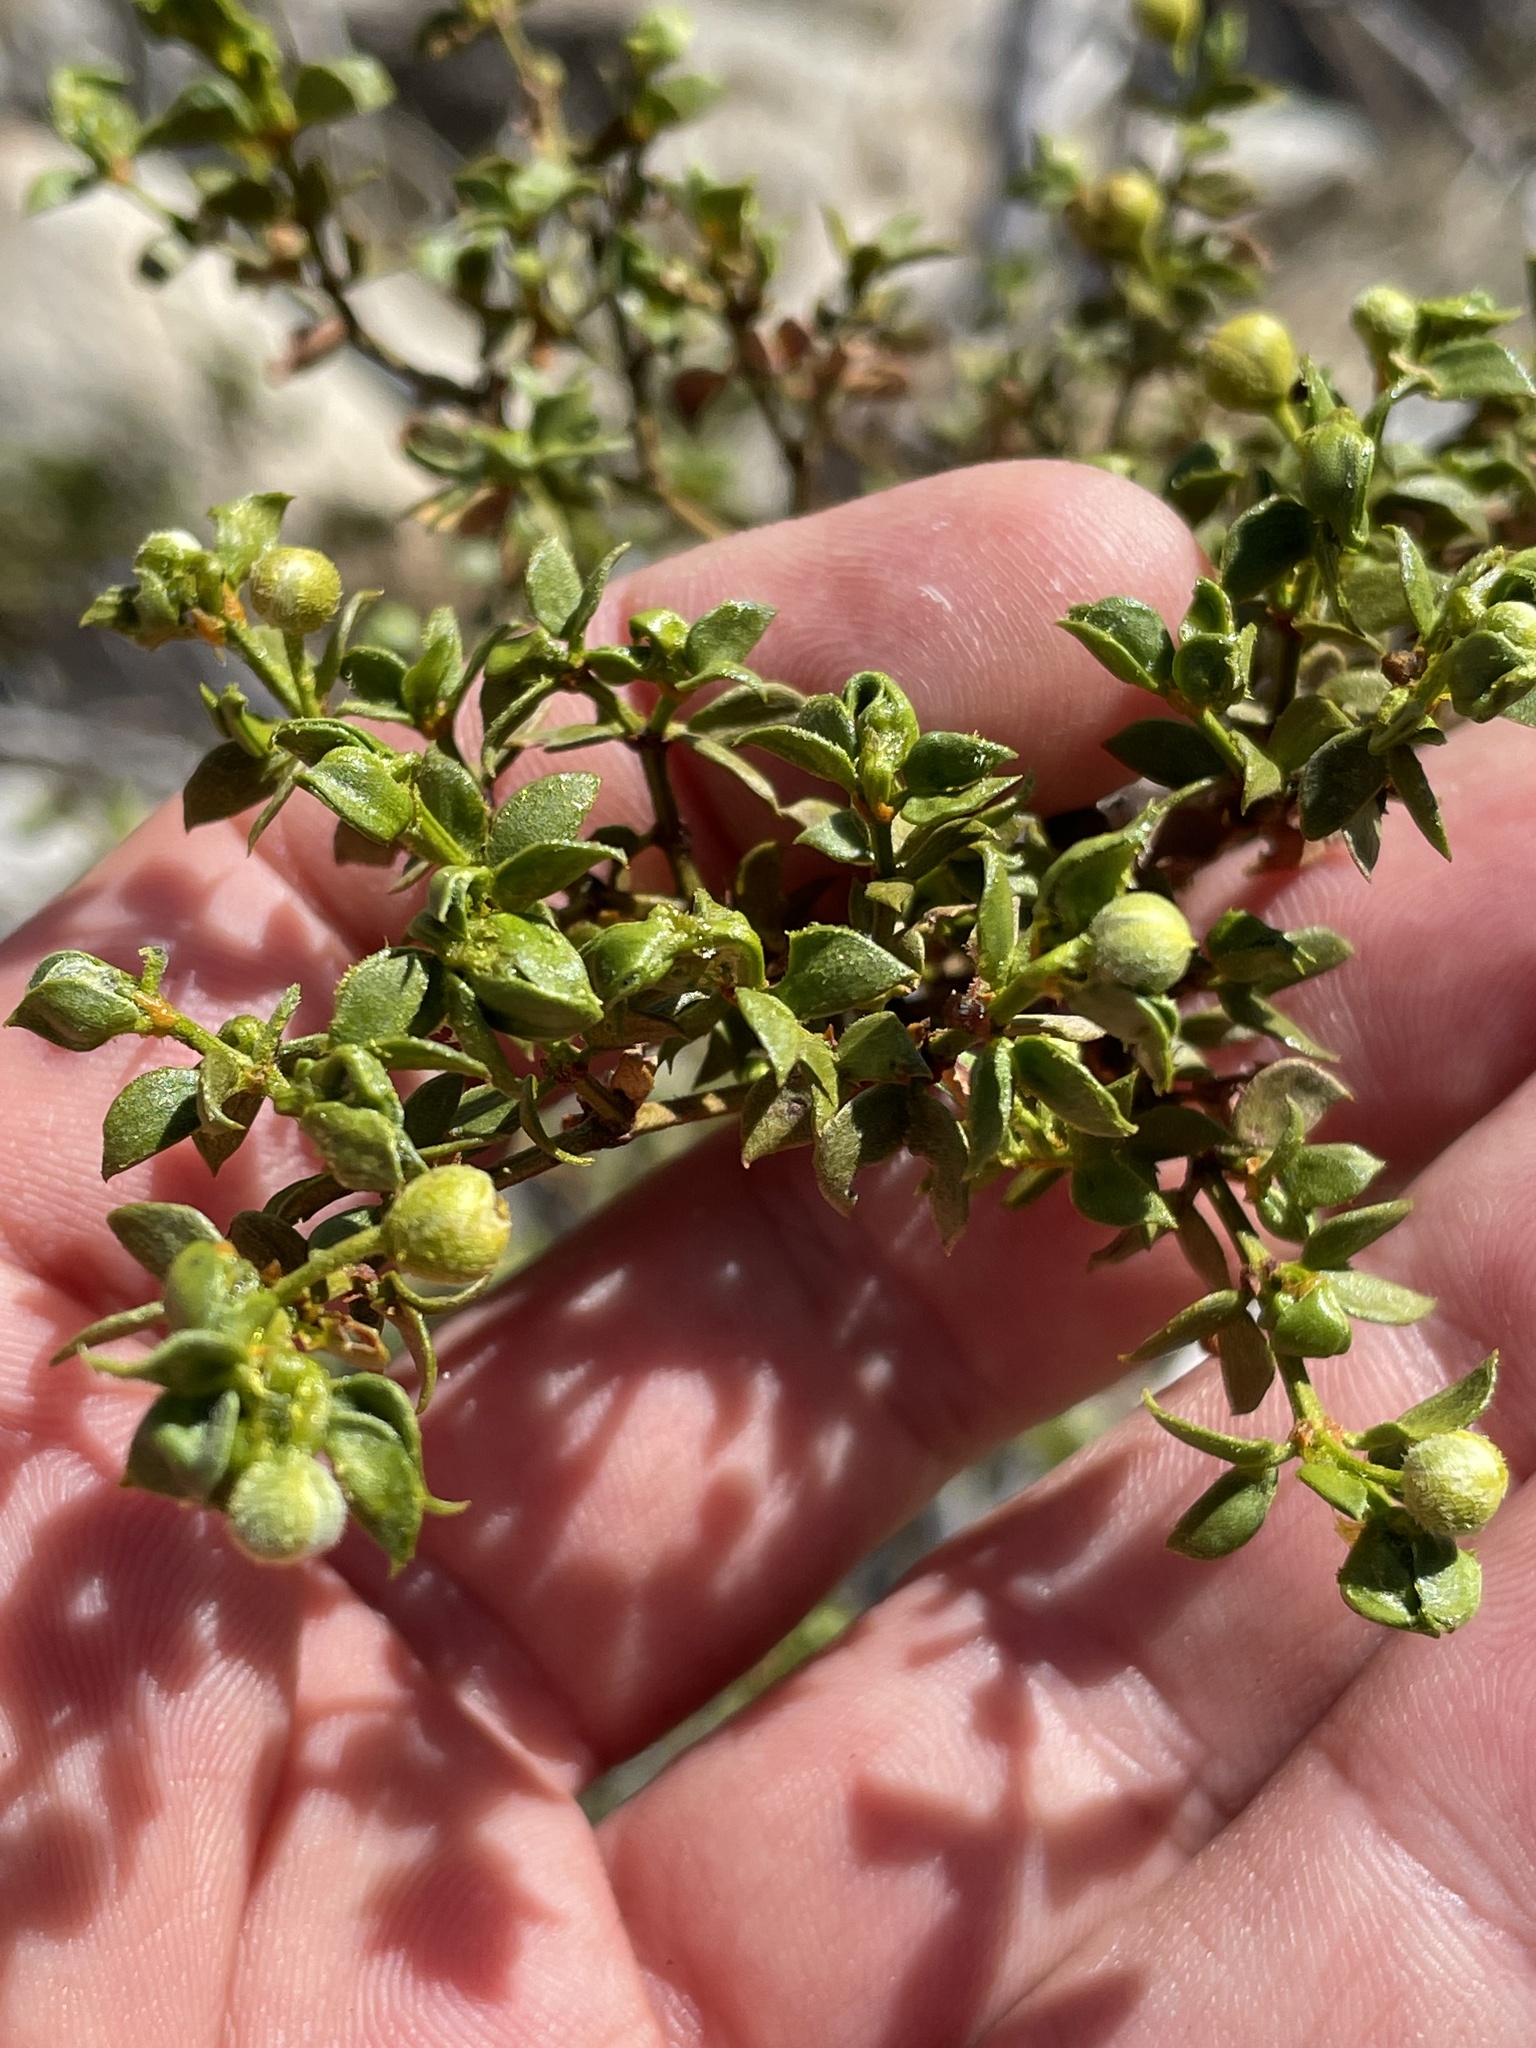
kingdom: Plantae
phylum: Tracheophyta
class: Magnoliopsida
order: Zygophyllales
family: Zygophyllaceae
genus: Larrea
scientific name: Larrea tridentata
